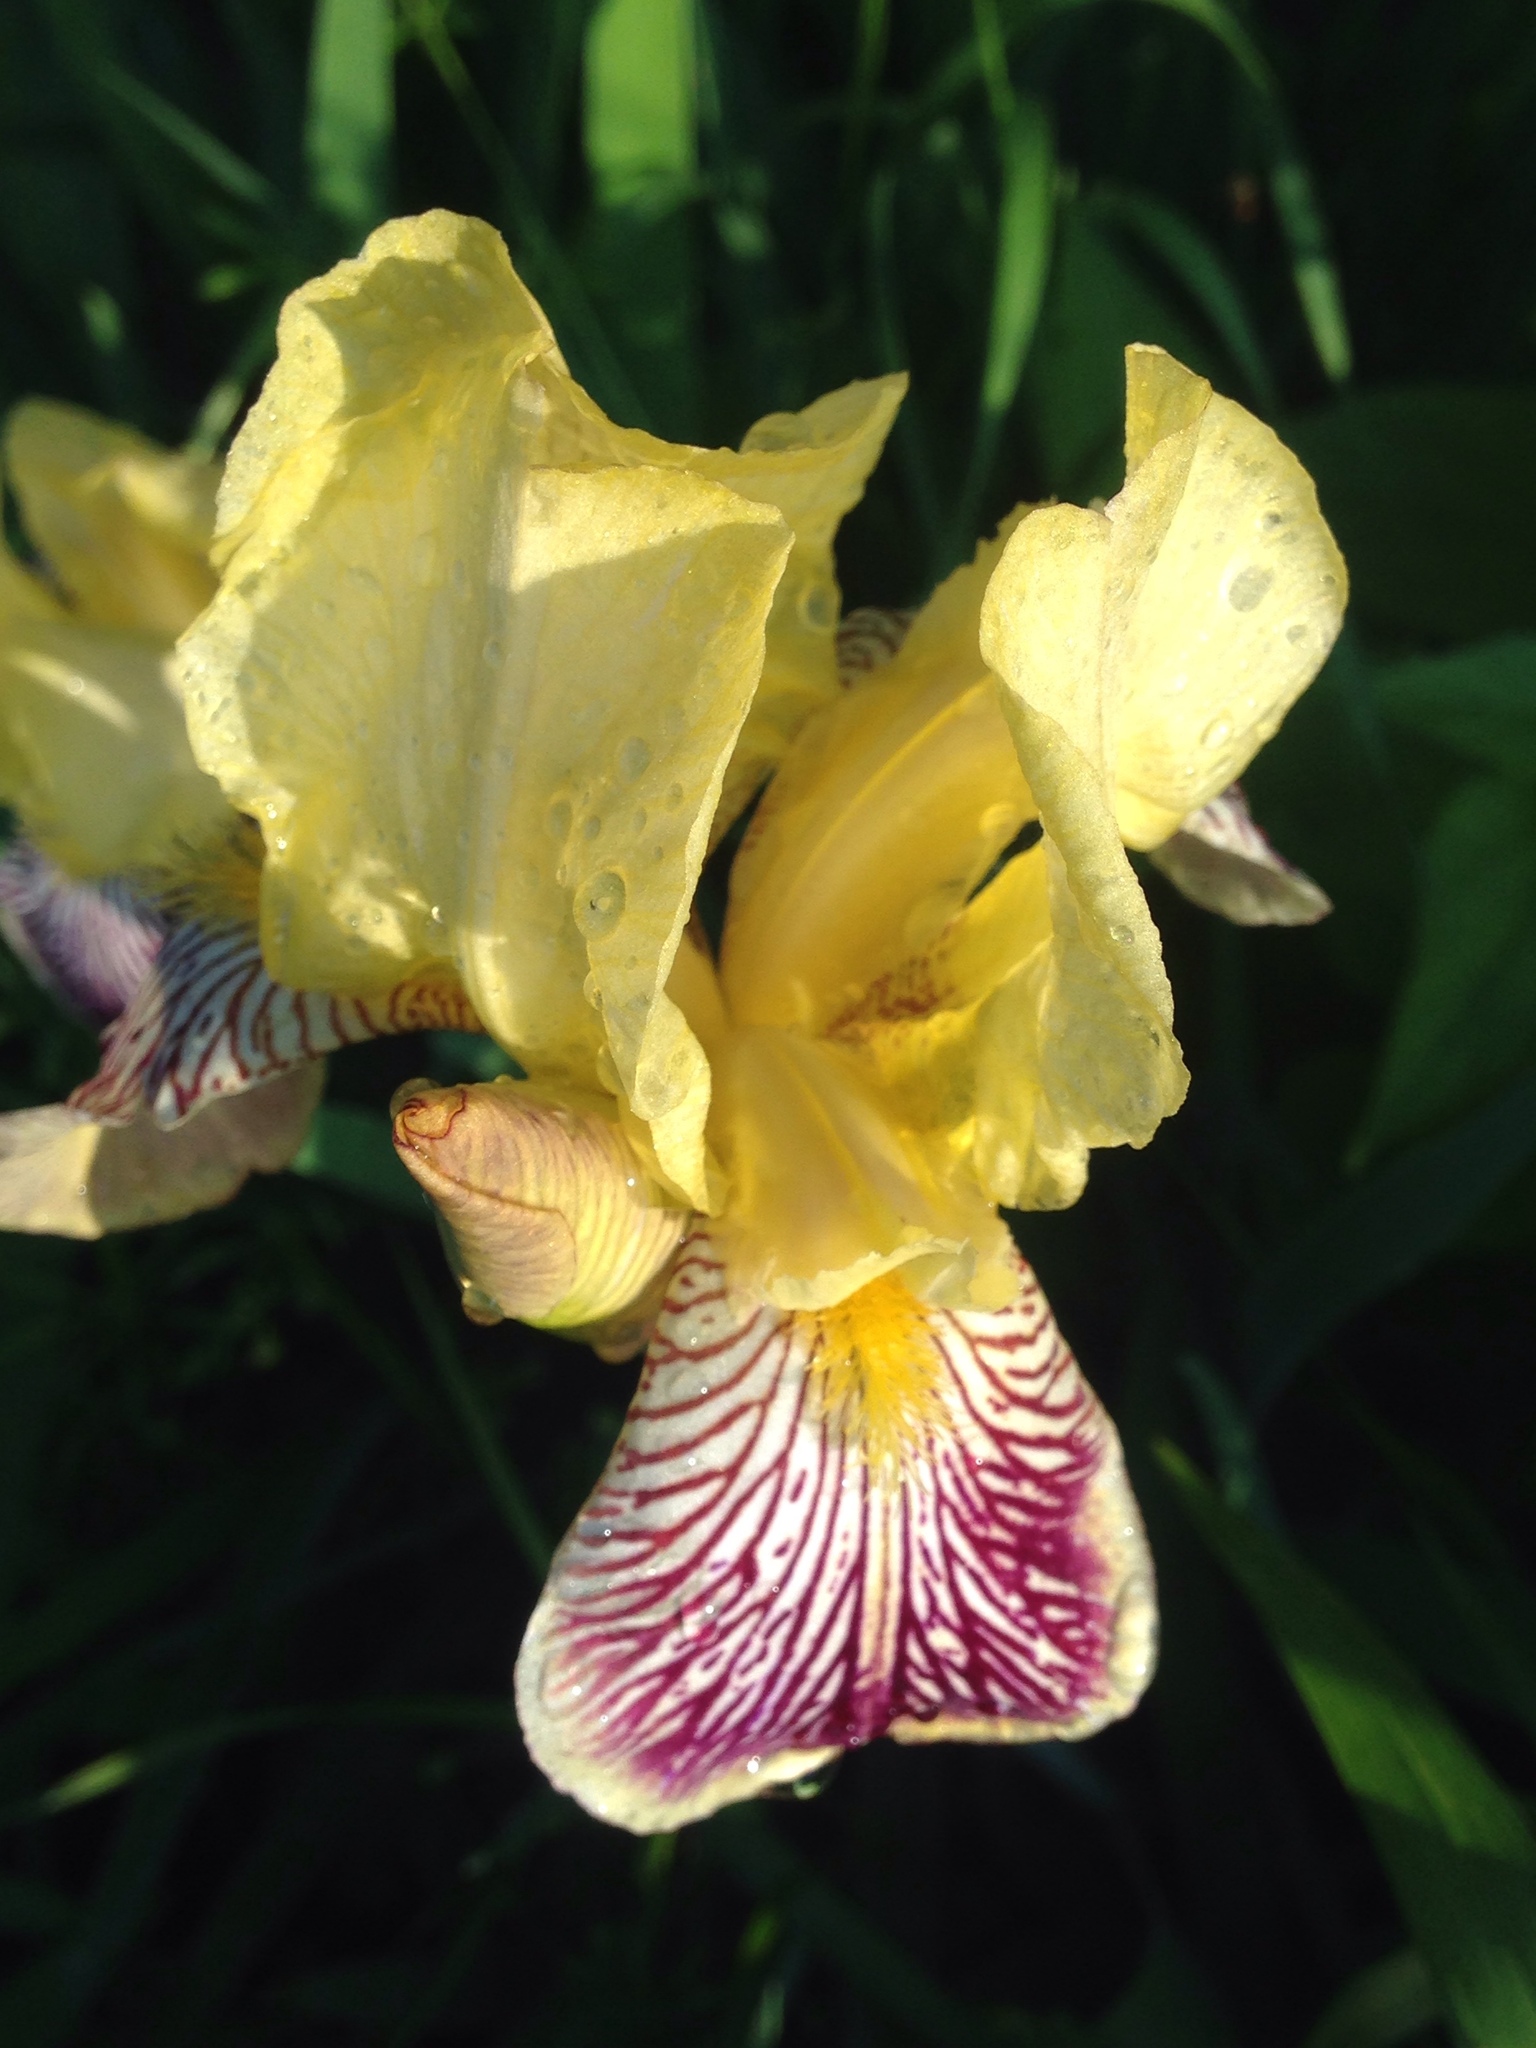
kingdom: Plantae
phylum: Tracheophyta
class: Liliopsida
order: Asparagales
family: Iridaceae
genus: Iris
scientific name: Iris hybrida
